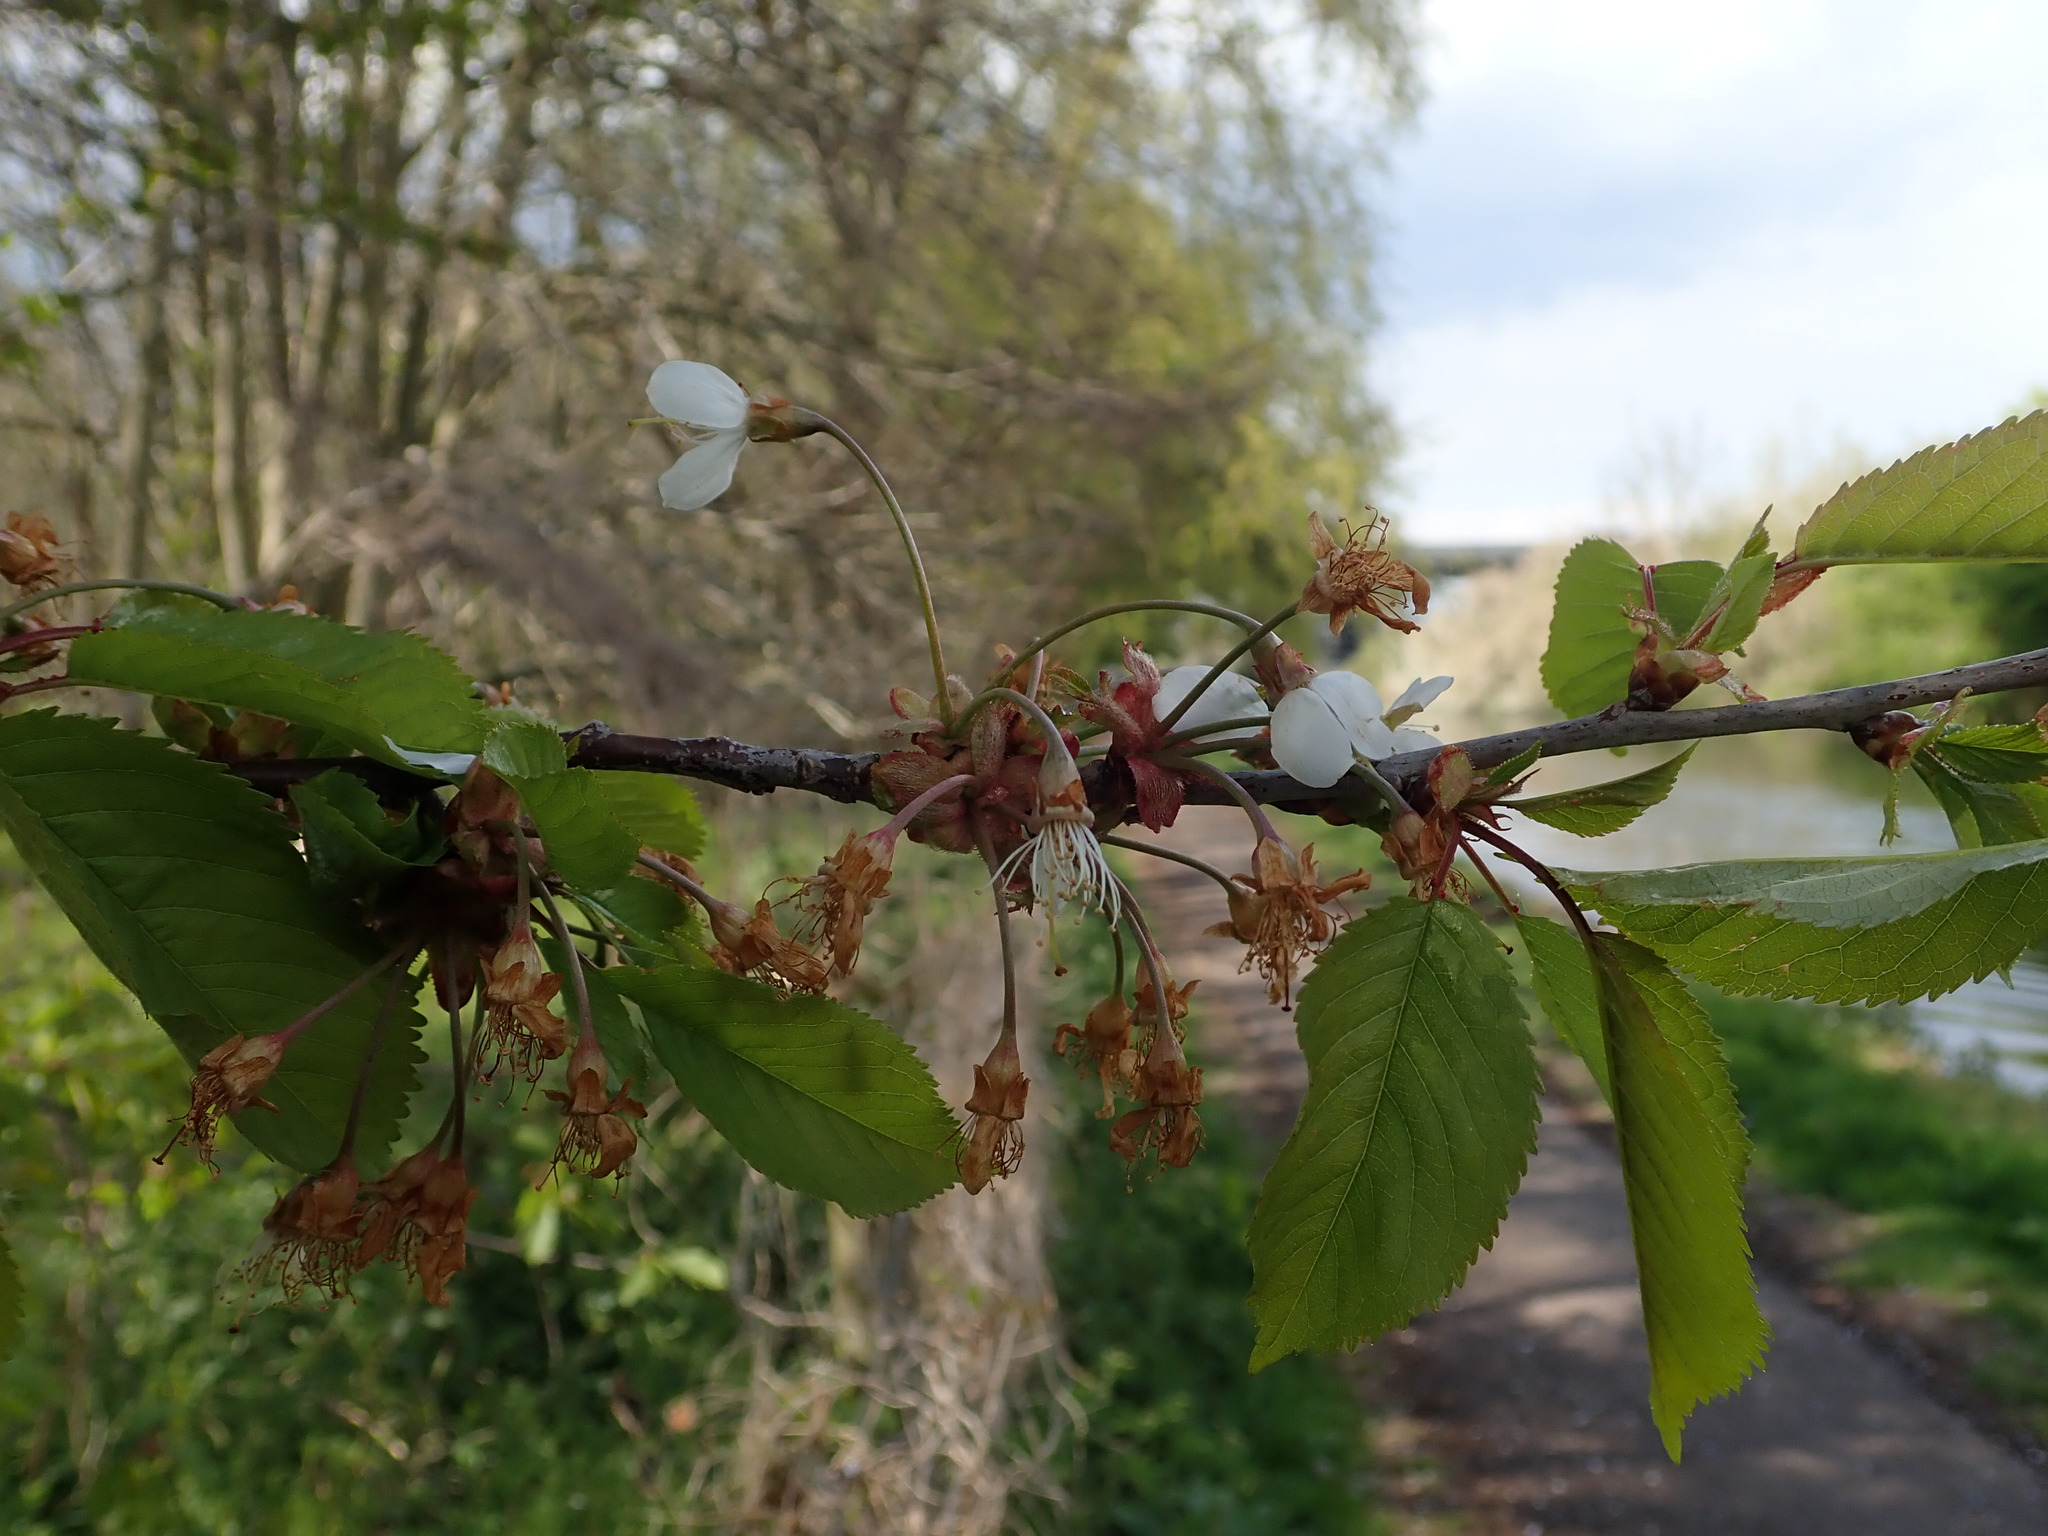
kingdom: Plantae
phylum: Tracheophyta
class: Magnoliopsida
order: Rosales
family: Rosaceae
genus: Prunus
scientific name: Prunus avium
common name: Sweet cherry
